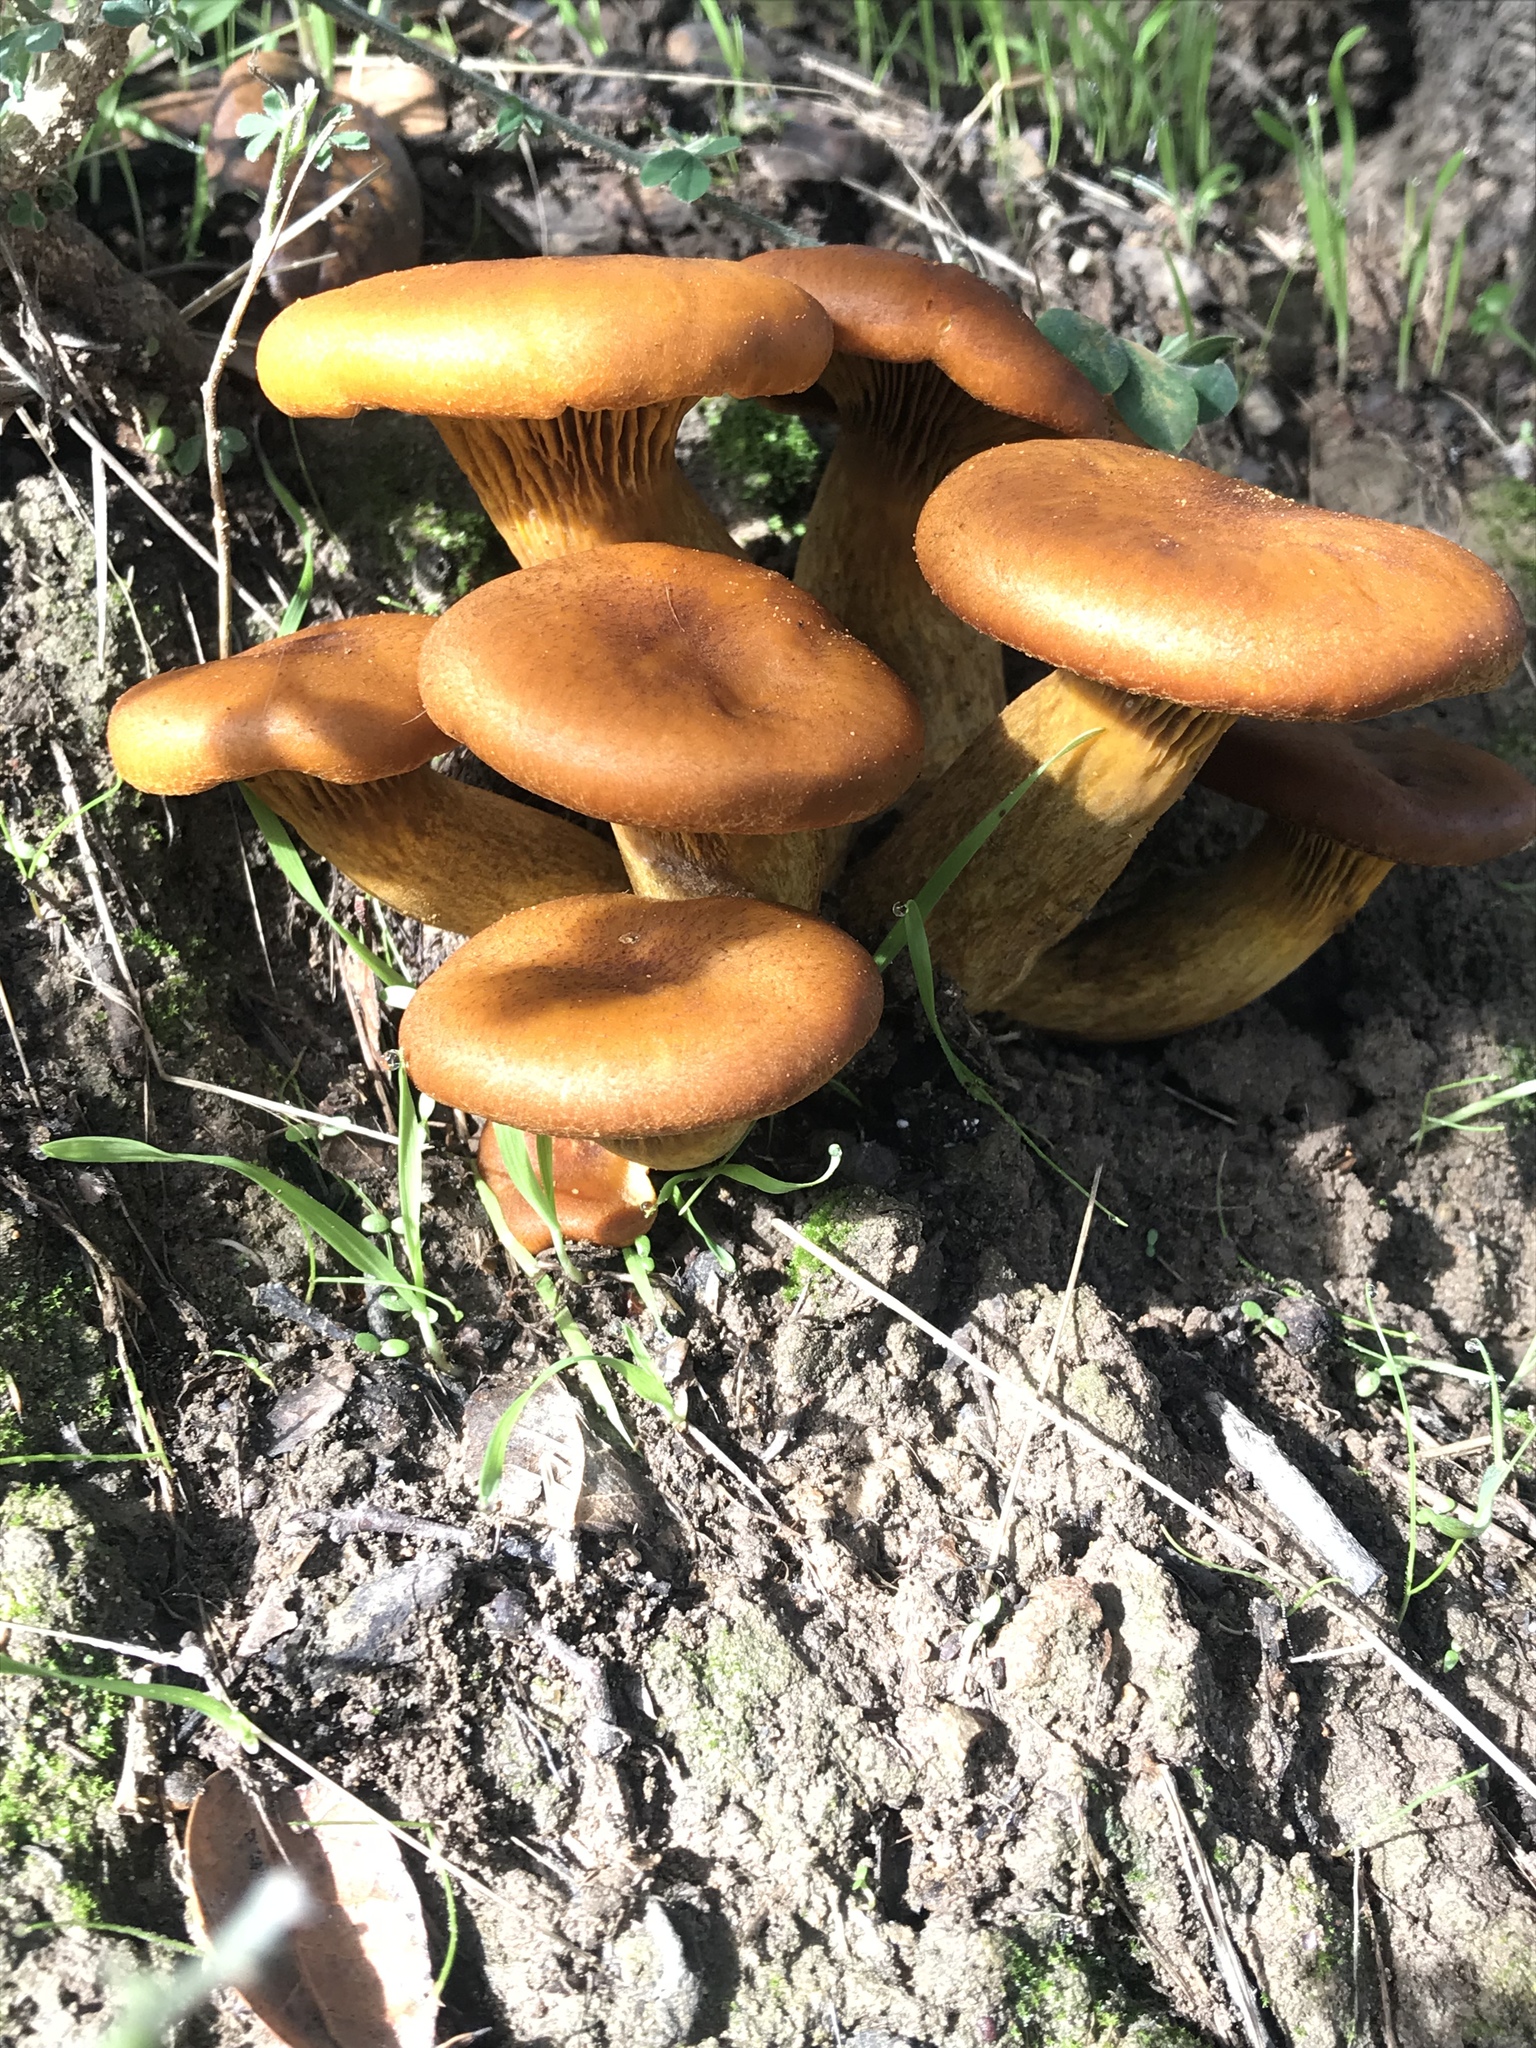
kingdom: Fungi
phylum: Basidiomycota
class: Agaricomycetes
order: Agaricales
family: Omphalotaceae
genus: Omphalotus
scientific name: Omphalotus olivascens
